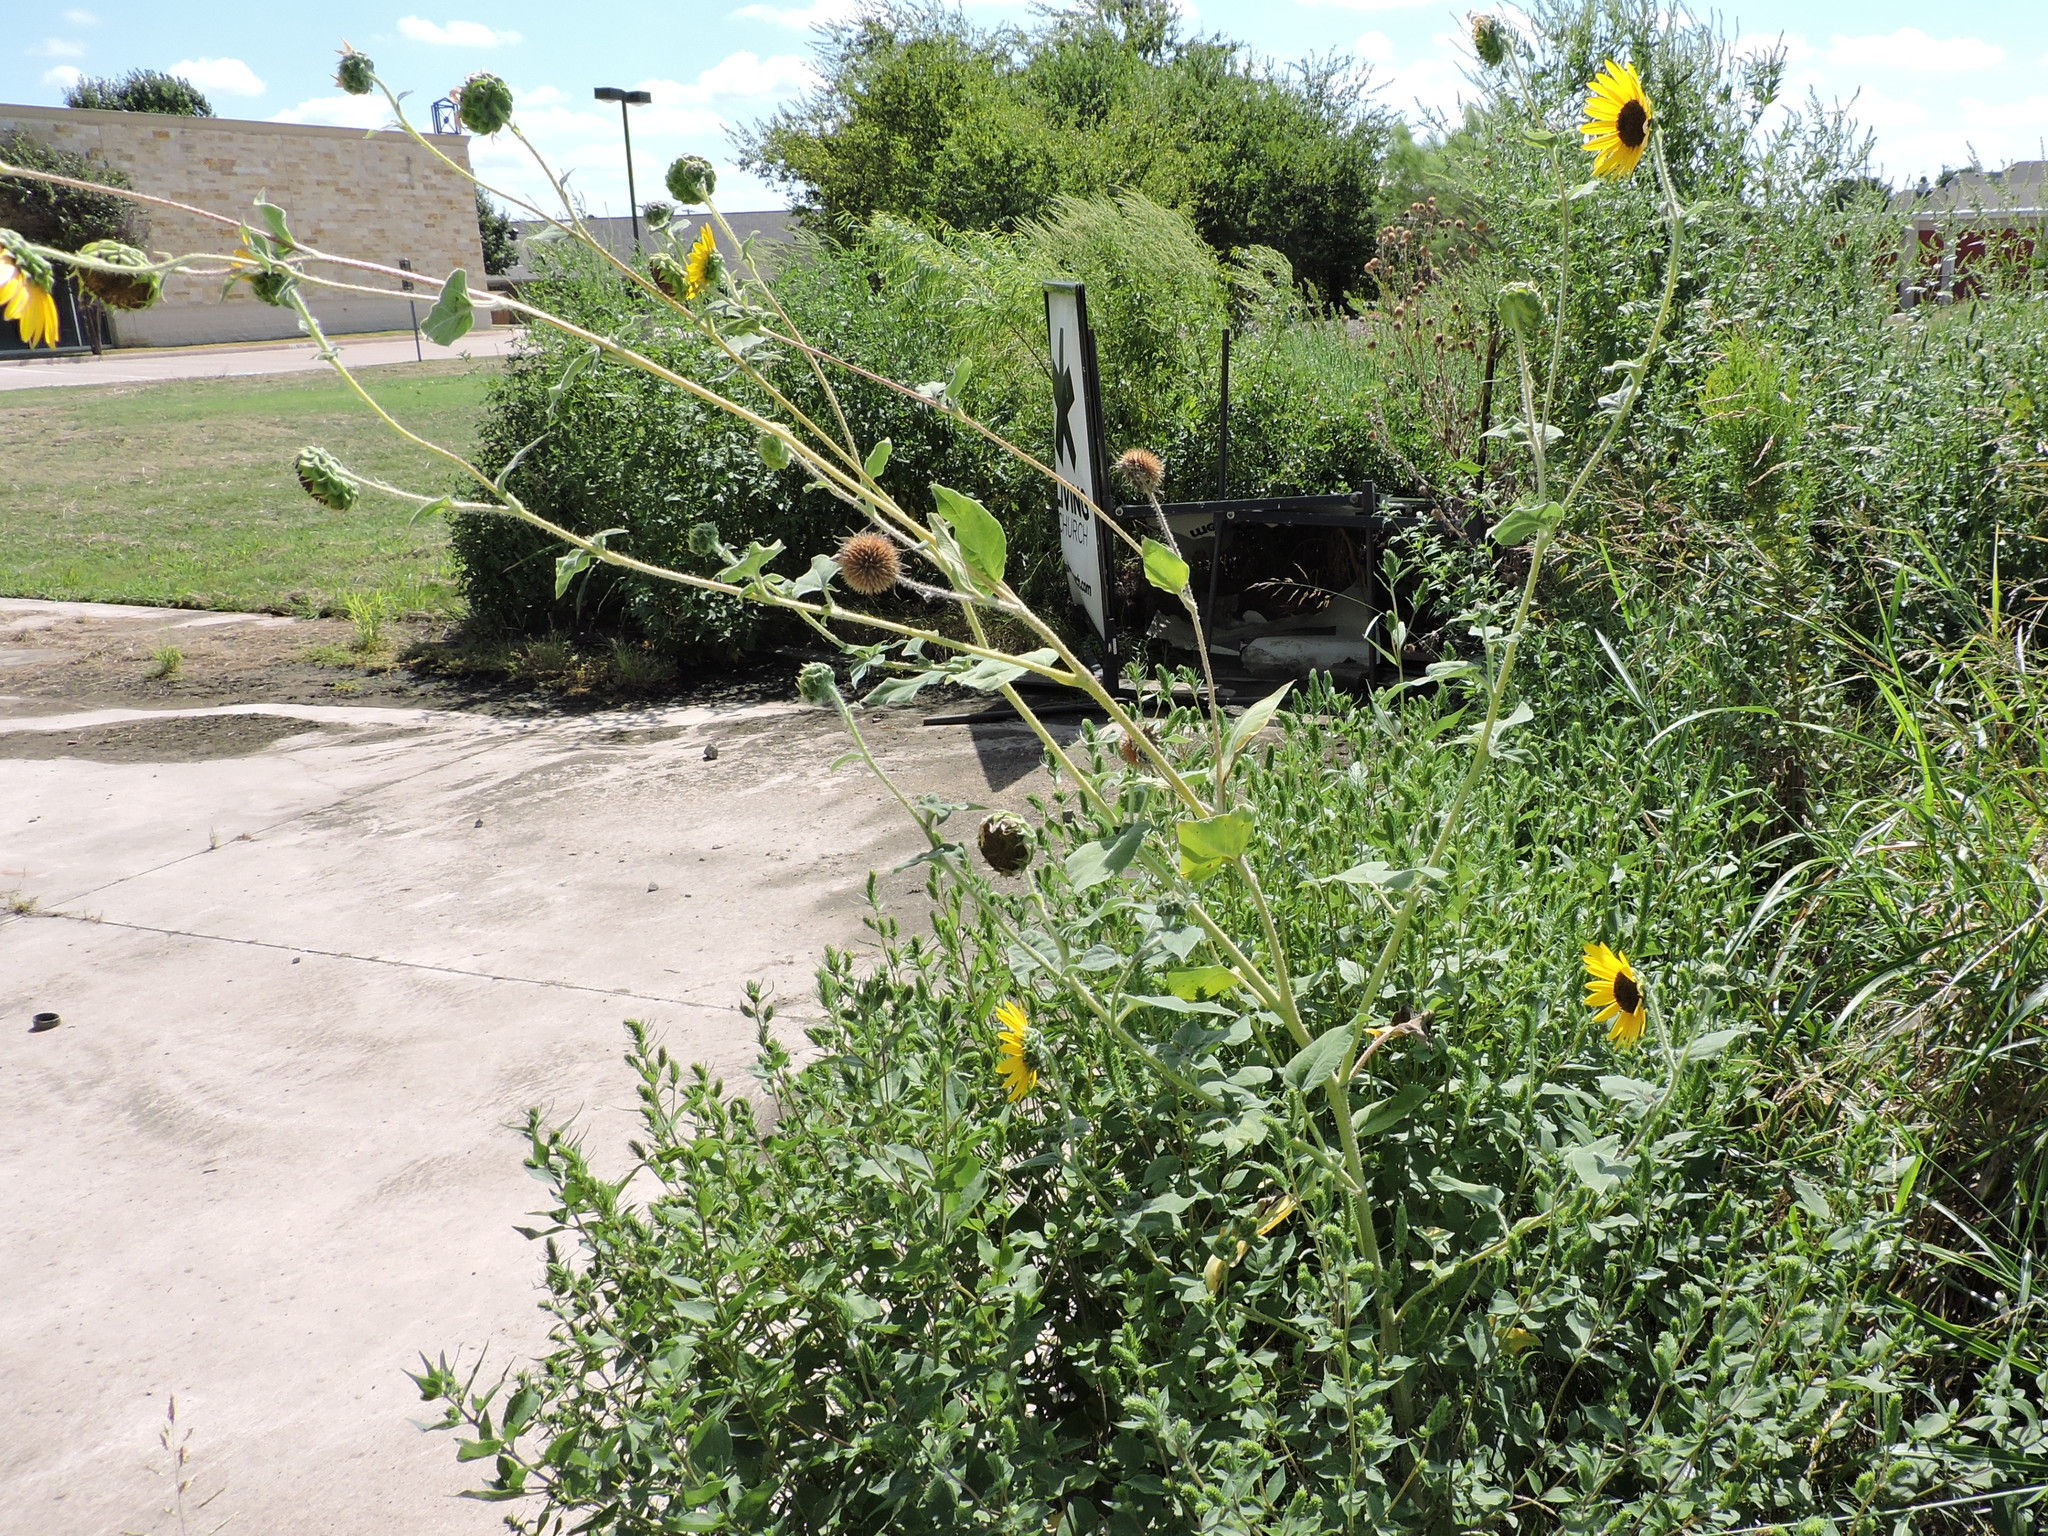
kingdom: Plantae
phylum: Tracheophyta
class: Magnoliopsida
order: Asterales
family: Asteraceae
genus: Helianthus
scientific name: Helianthus annuus
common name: Sunflower
